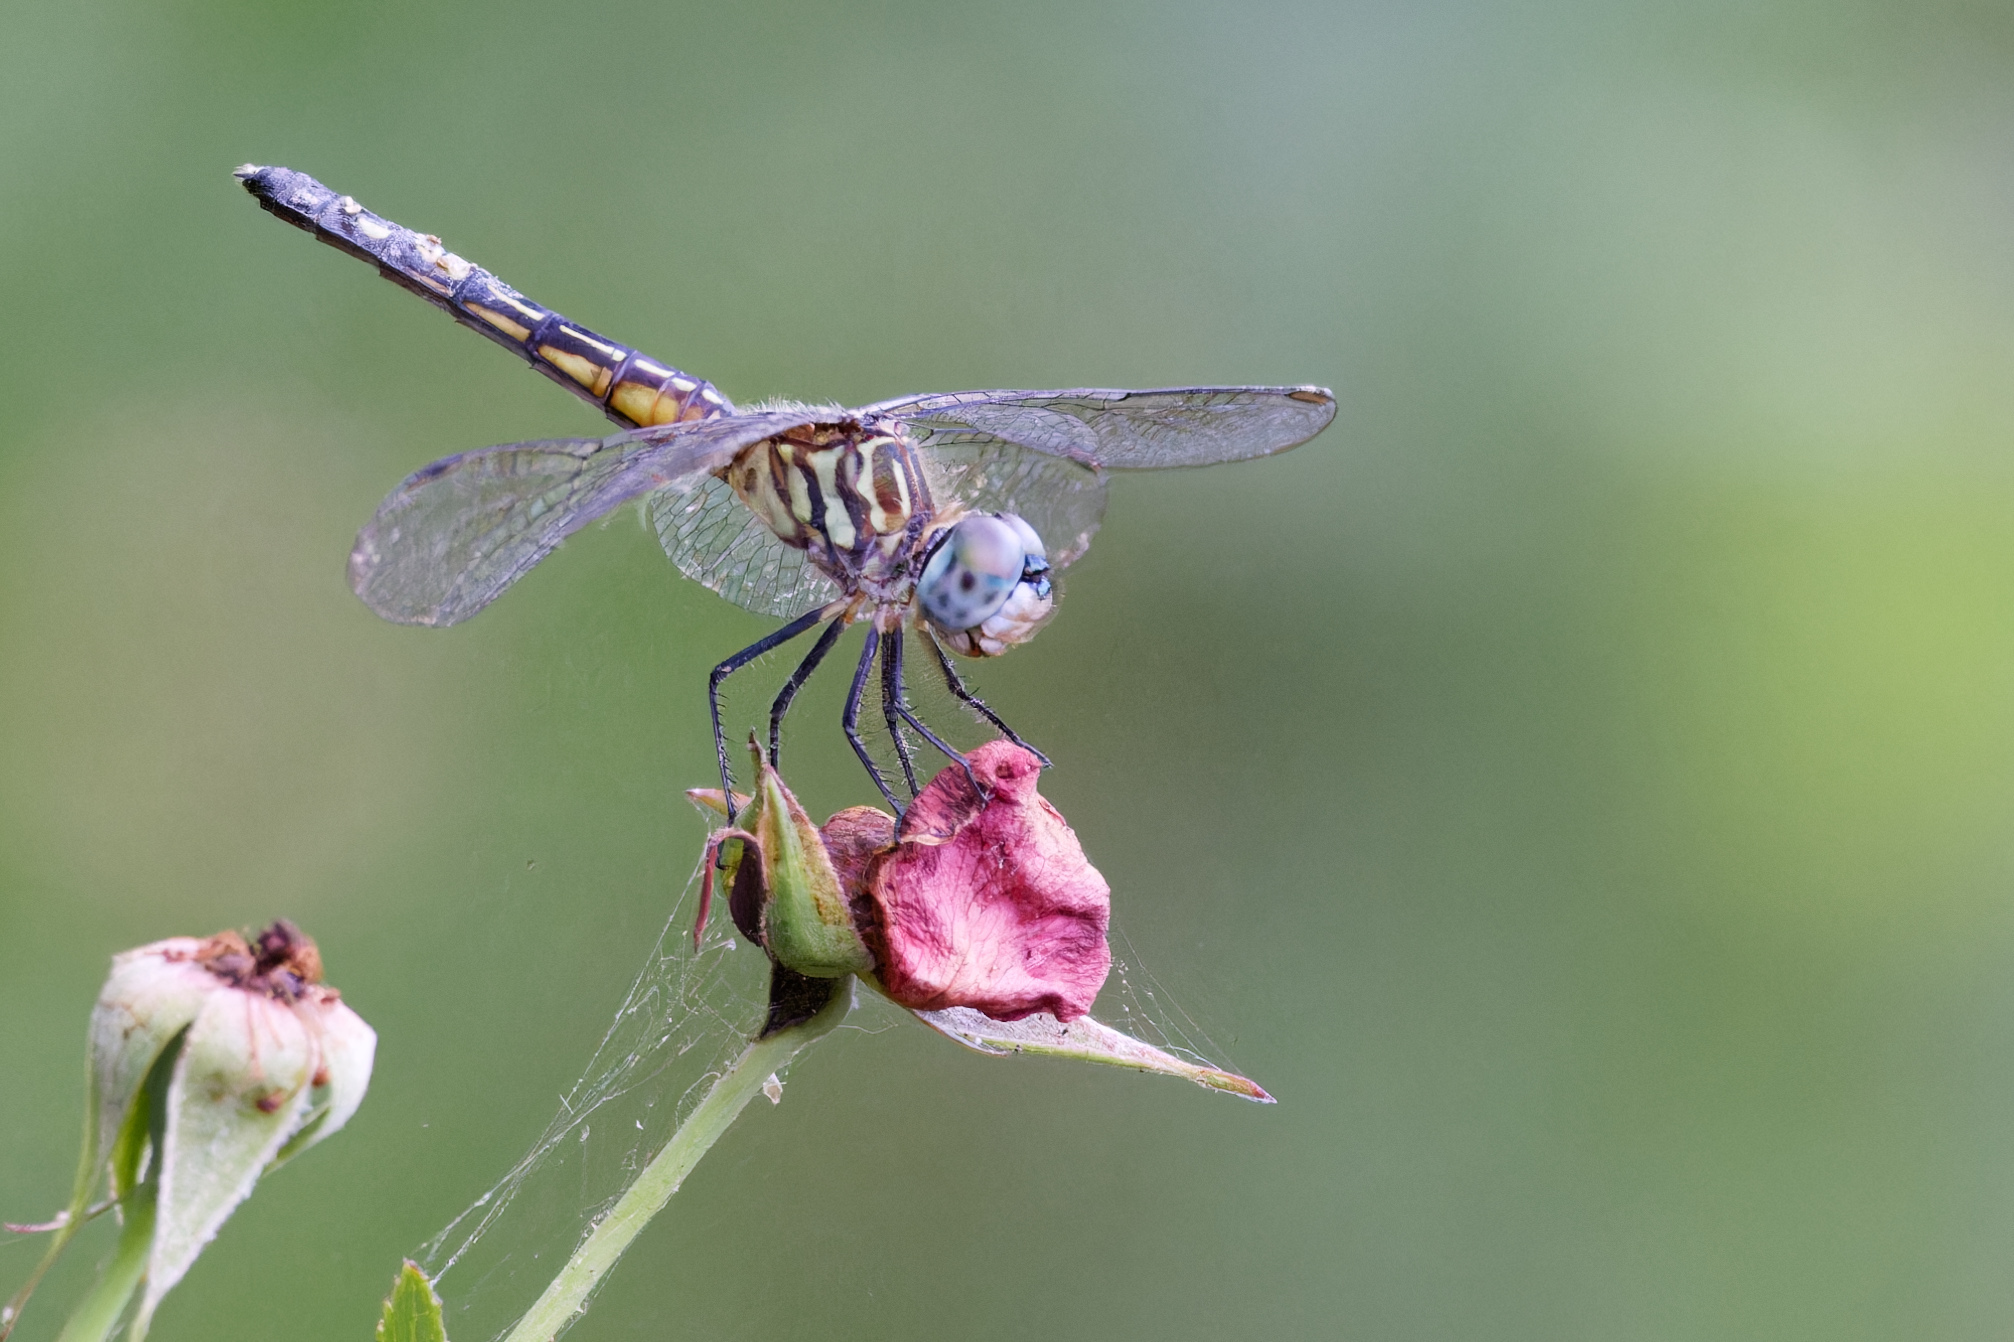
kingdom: Animalia
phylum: Arthropoda
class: Insecta
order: Odonata
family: Libellulidae
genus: Pachydiplax
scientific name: Pachydiplax longipennis
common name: Blue dasher
